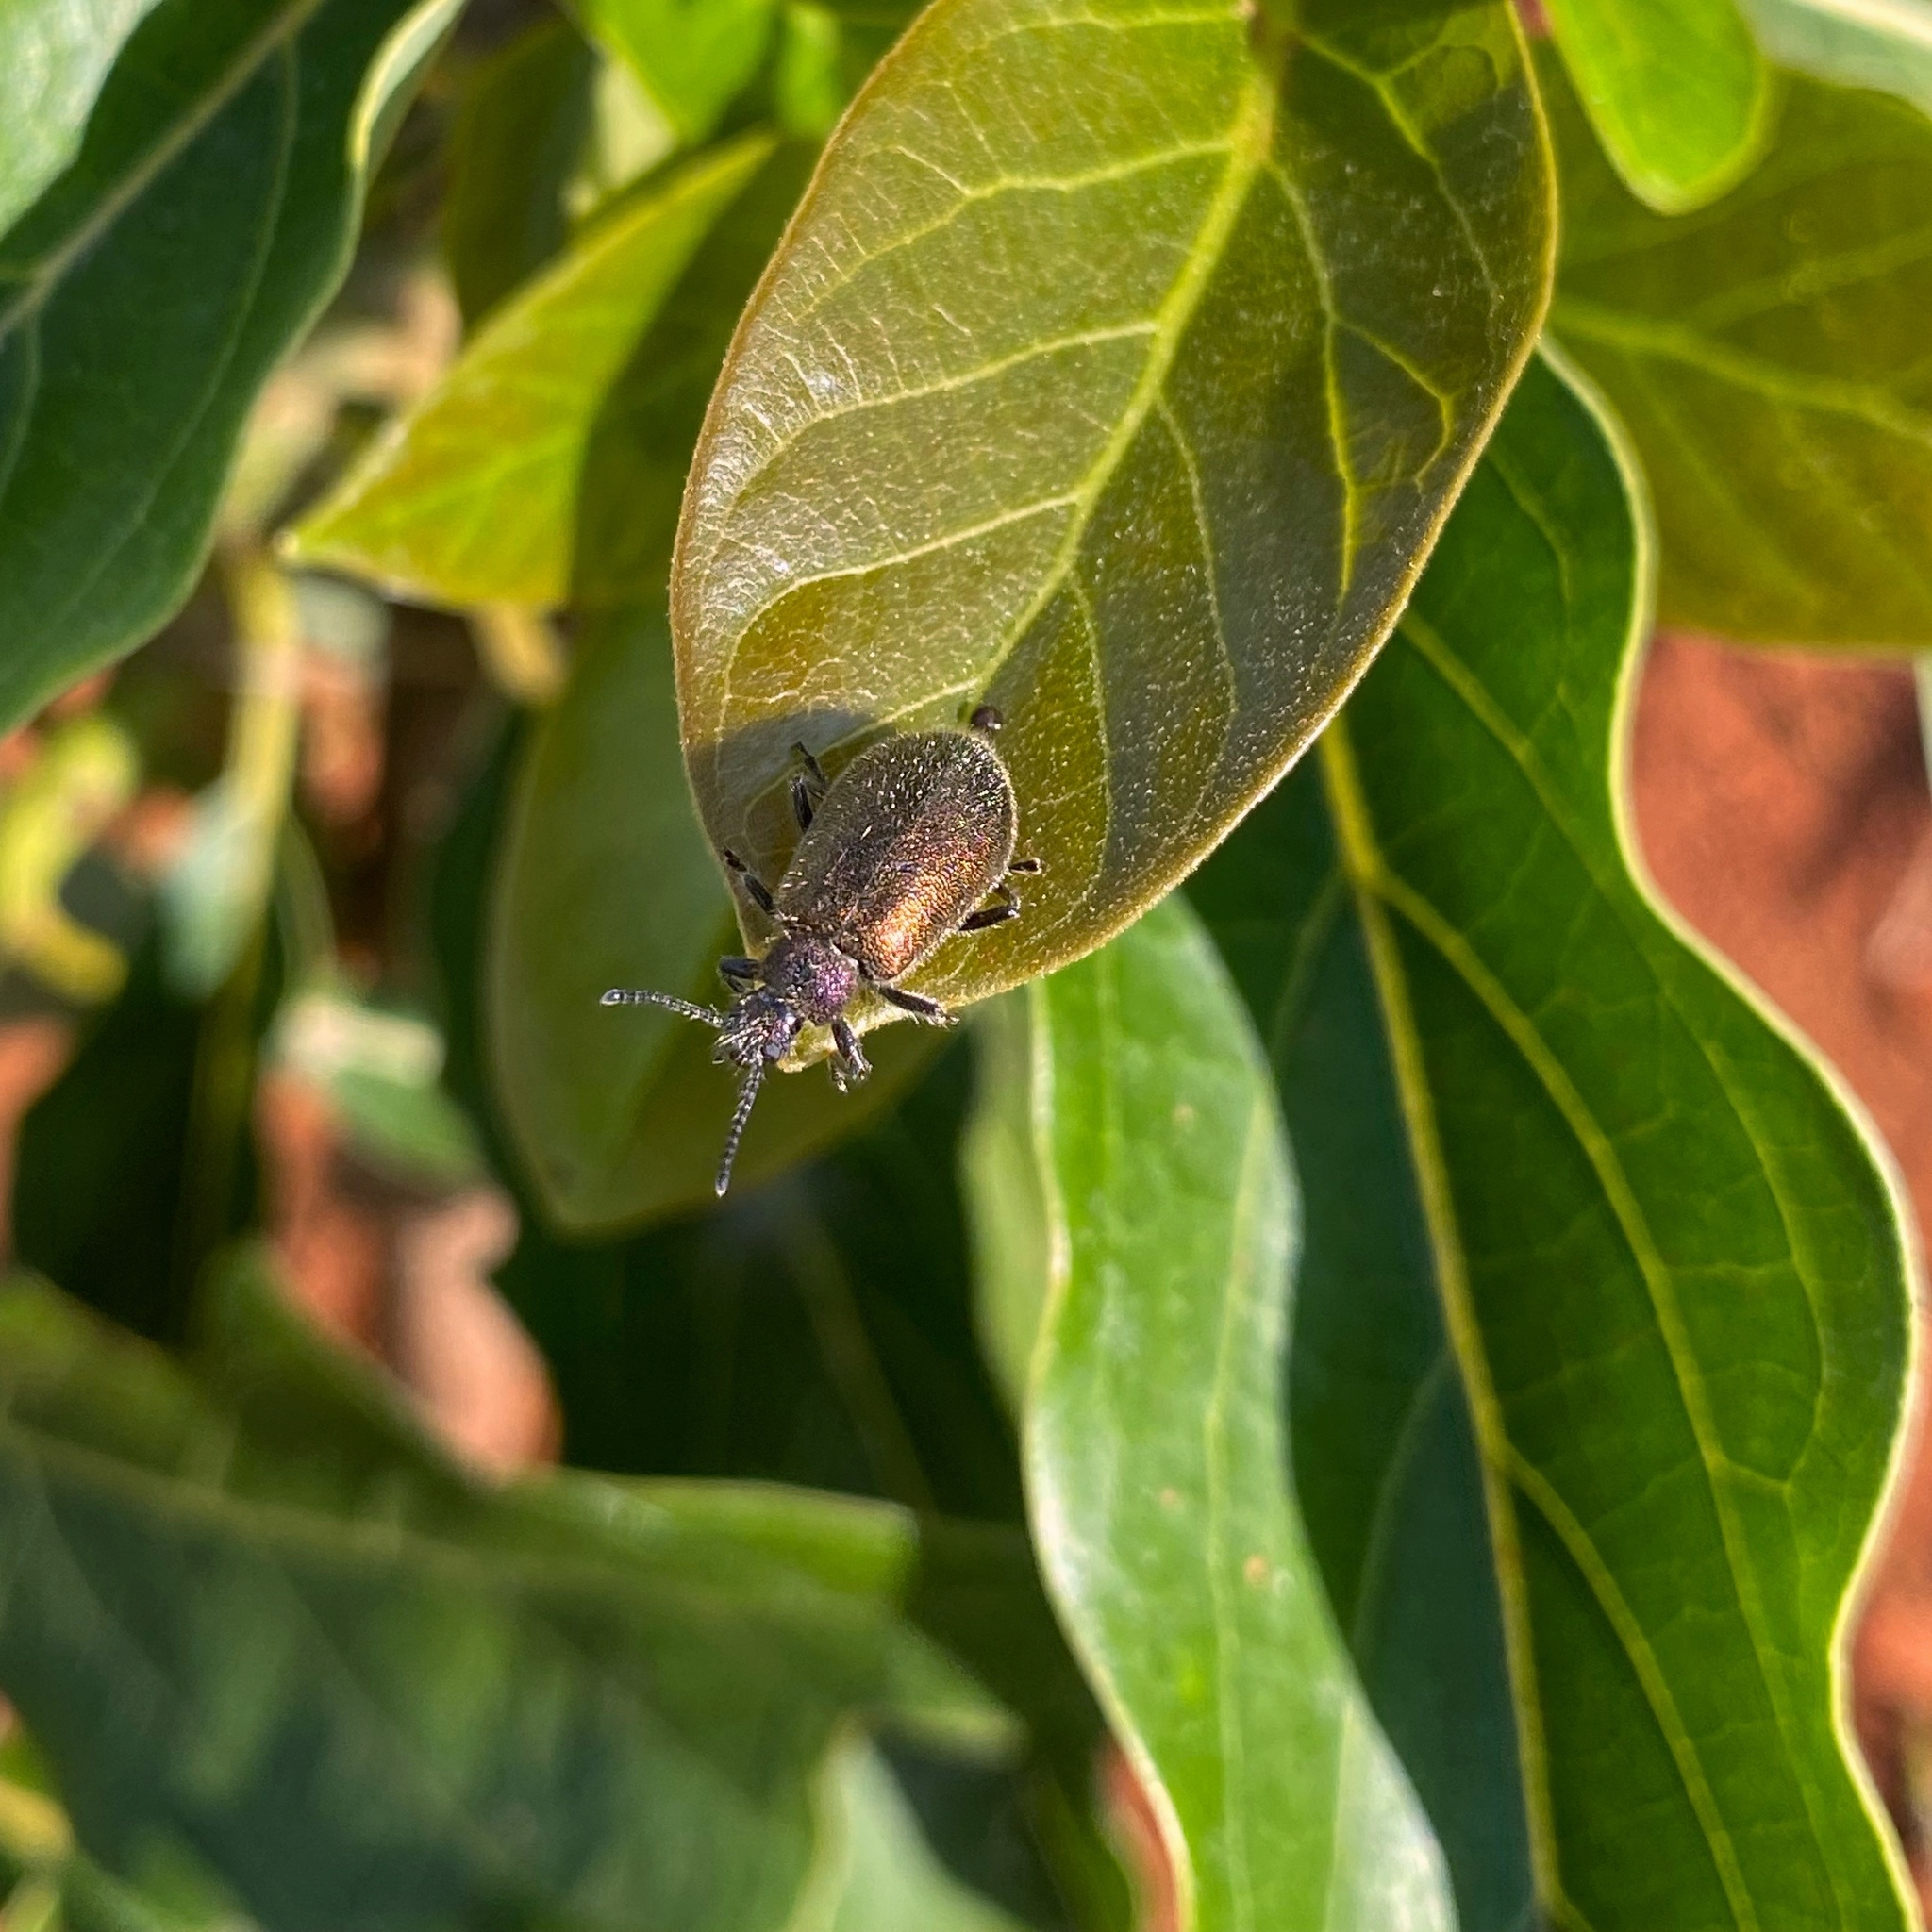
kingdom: Animalia
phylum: Arthropoda
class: Insecta
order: Coleoptera
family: Tenebrionidae
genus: Lagria
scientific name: Lagria villosa
